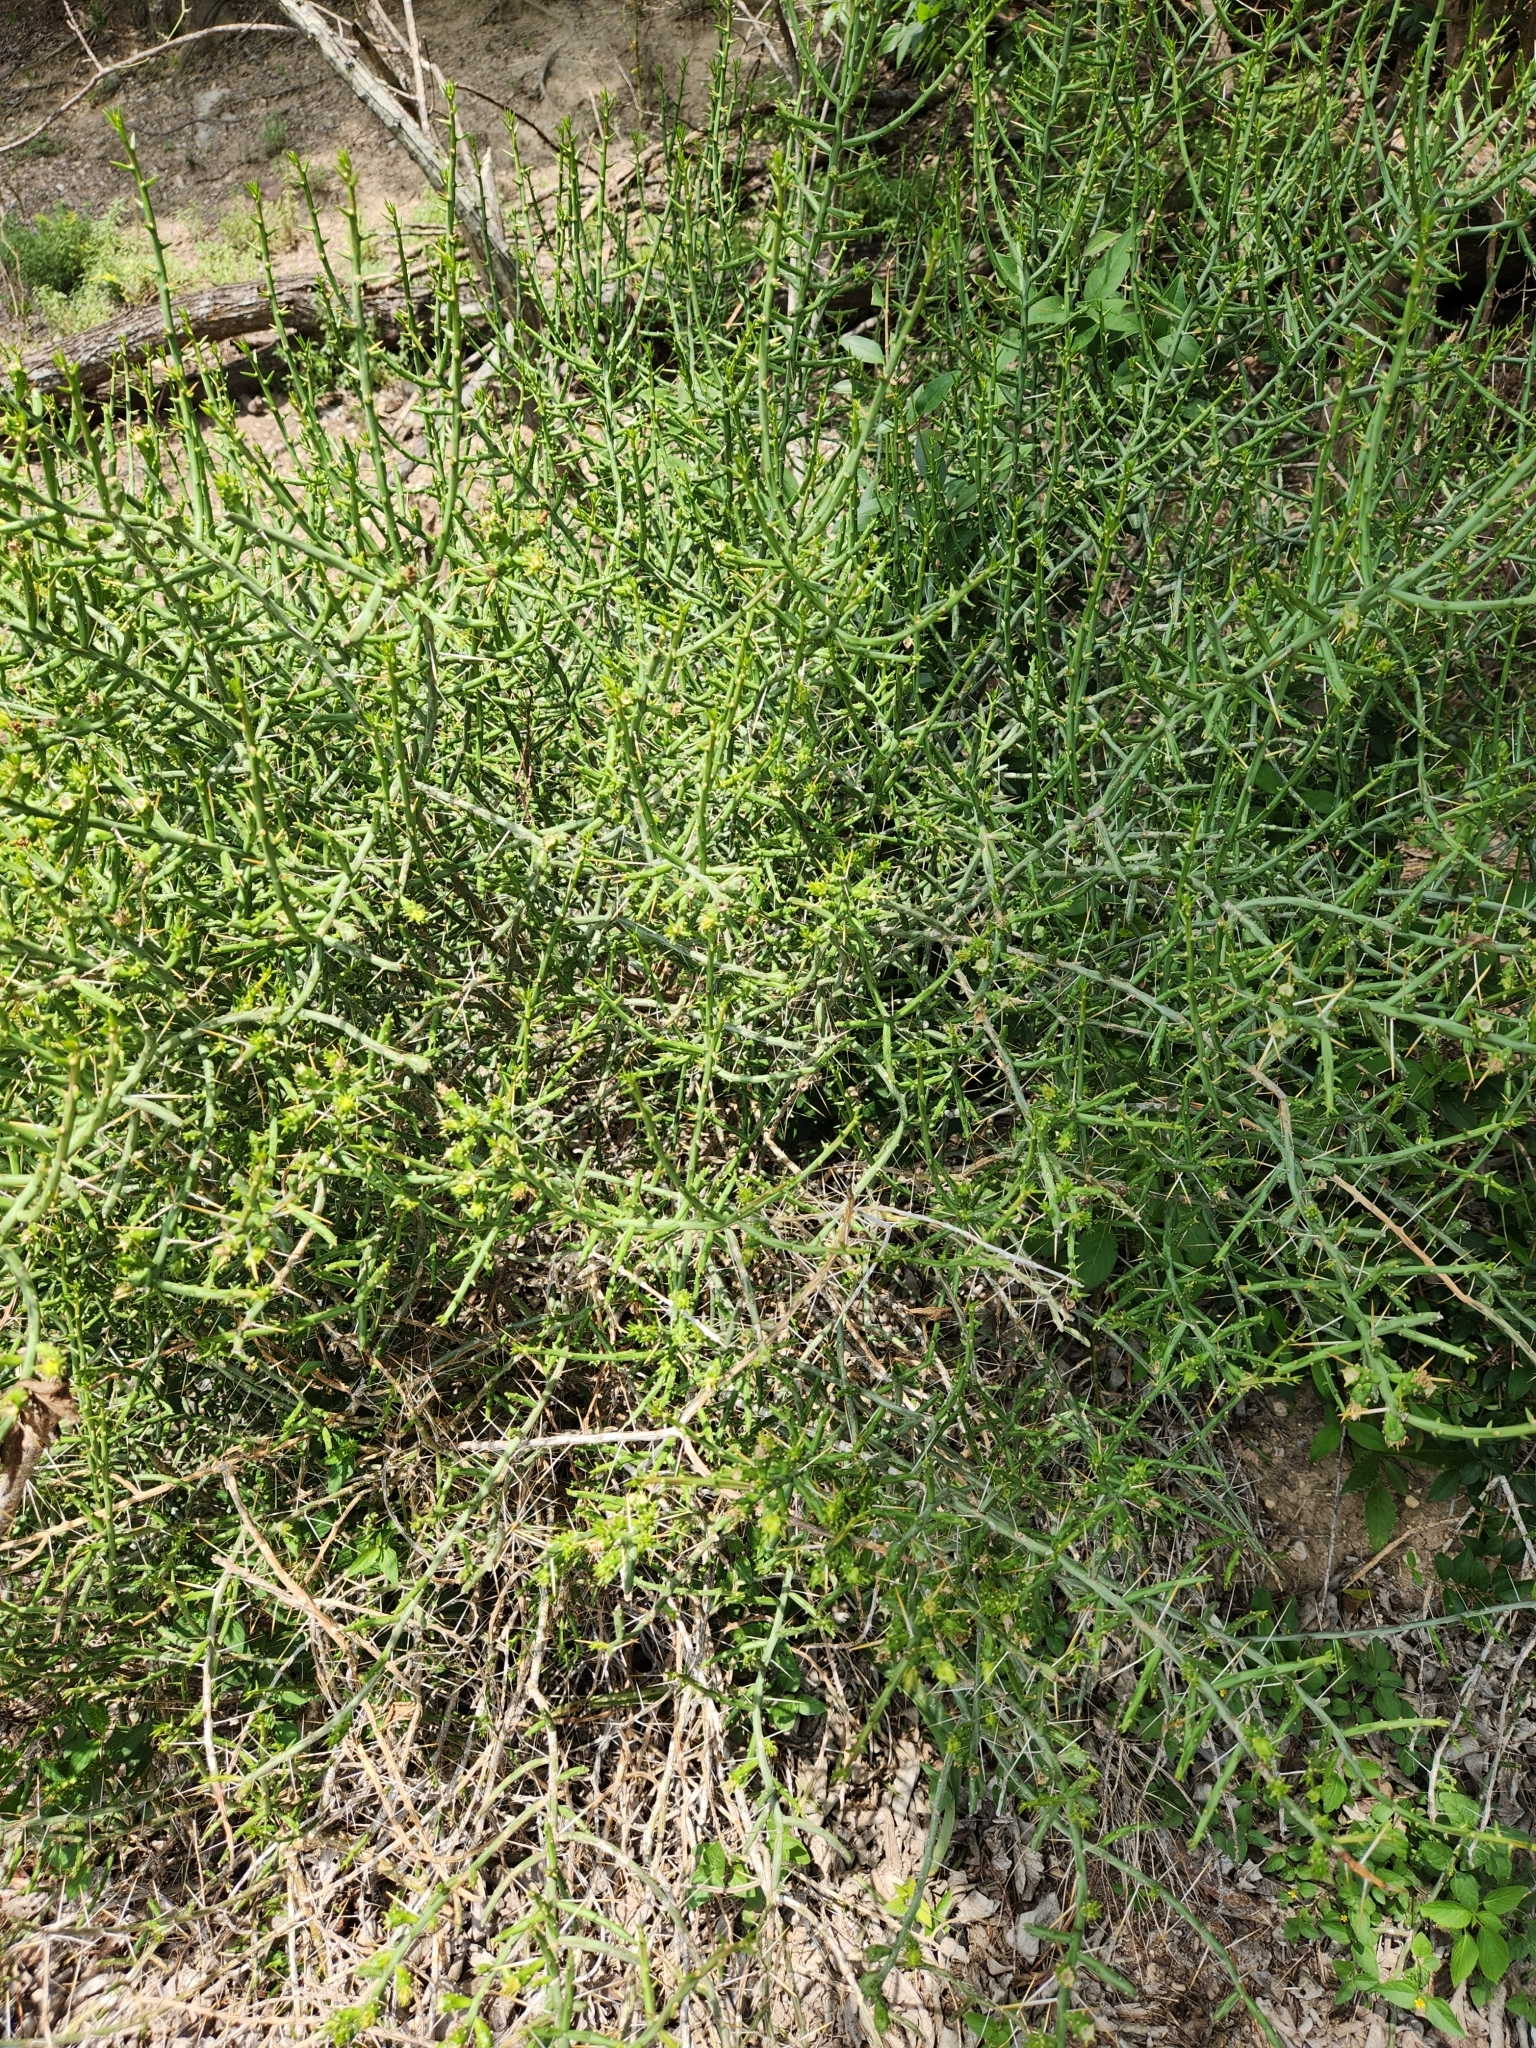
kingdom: Plantae
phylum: Tracheophyta
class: Magnoliopsida
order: Caryophyllales
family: Cactaceae
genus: Cylindropuntia
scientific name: Cylindropuntia leptocaulis
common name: Christmas cactus
